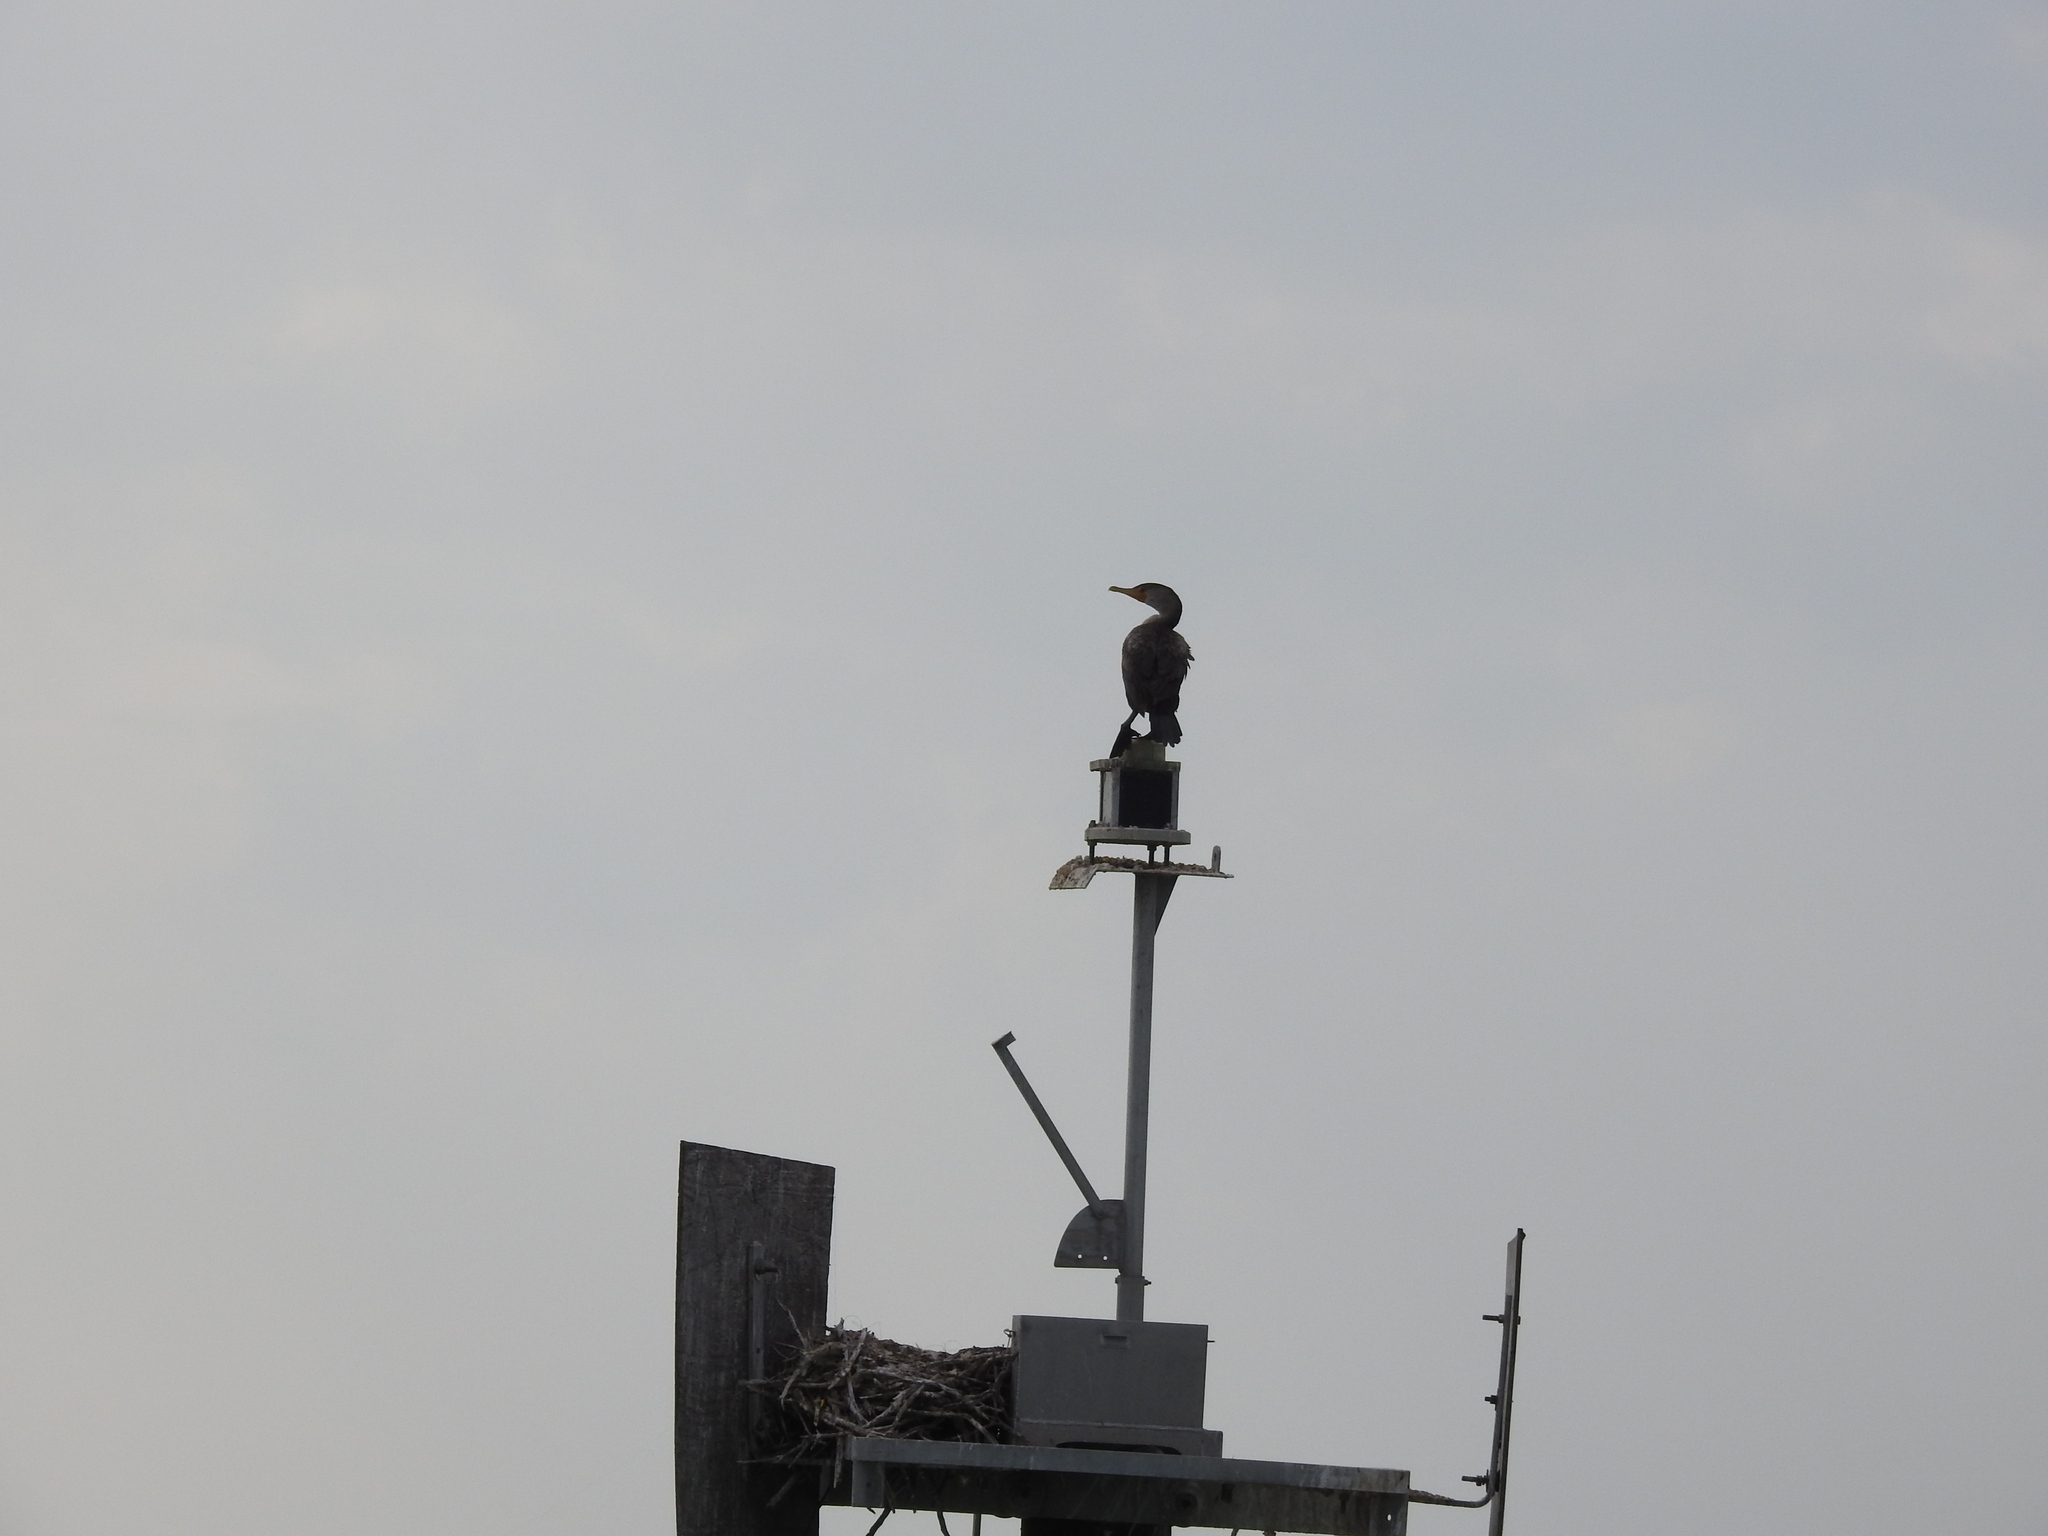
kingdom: Animalia
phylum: Chordata
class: Aves
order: Suliformes
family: Phalacrocoracidae
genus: Phalacrocorax
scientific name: Phalacrocorax auritus
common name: Double-crested cormorant
